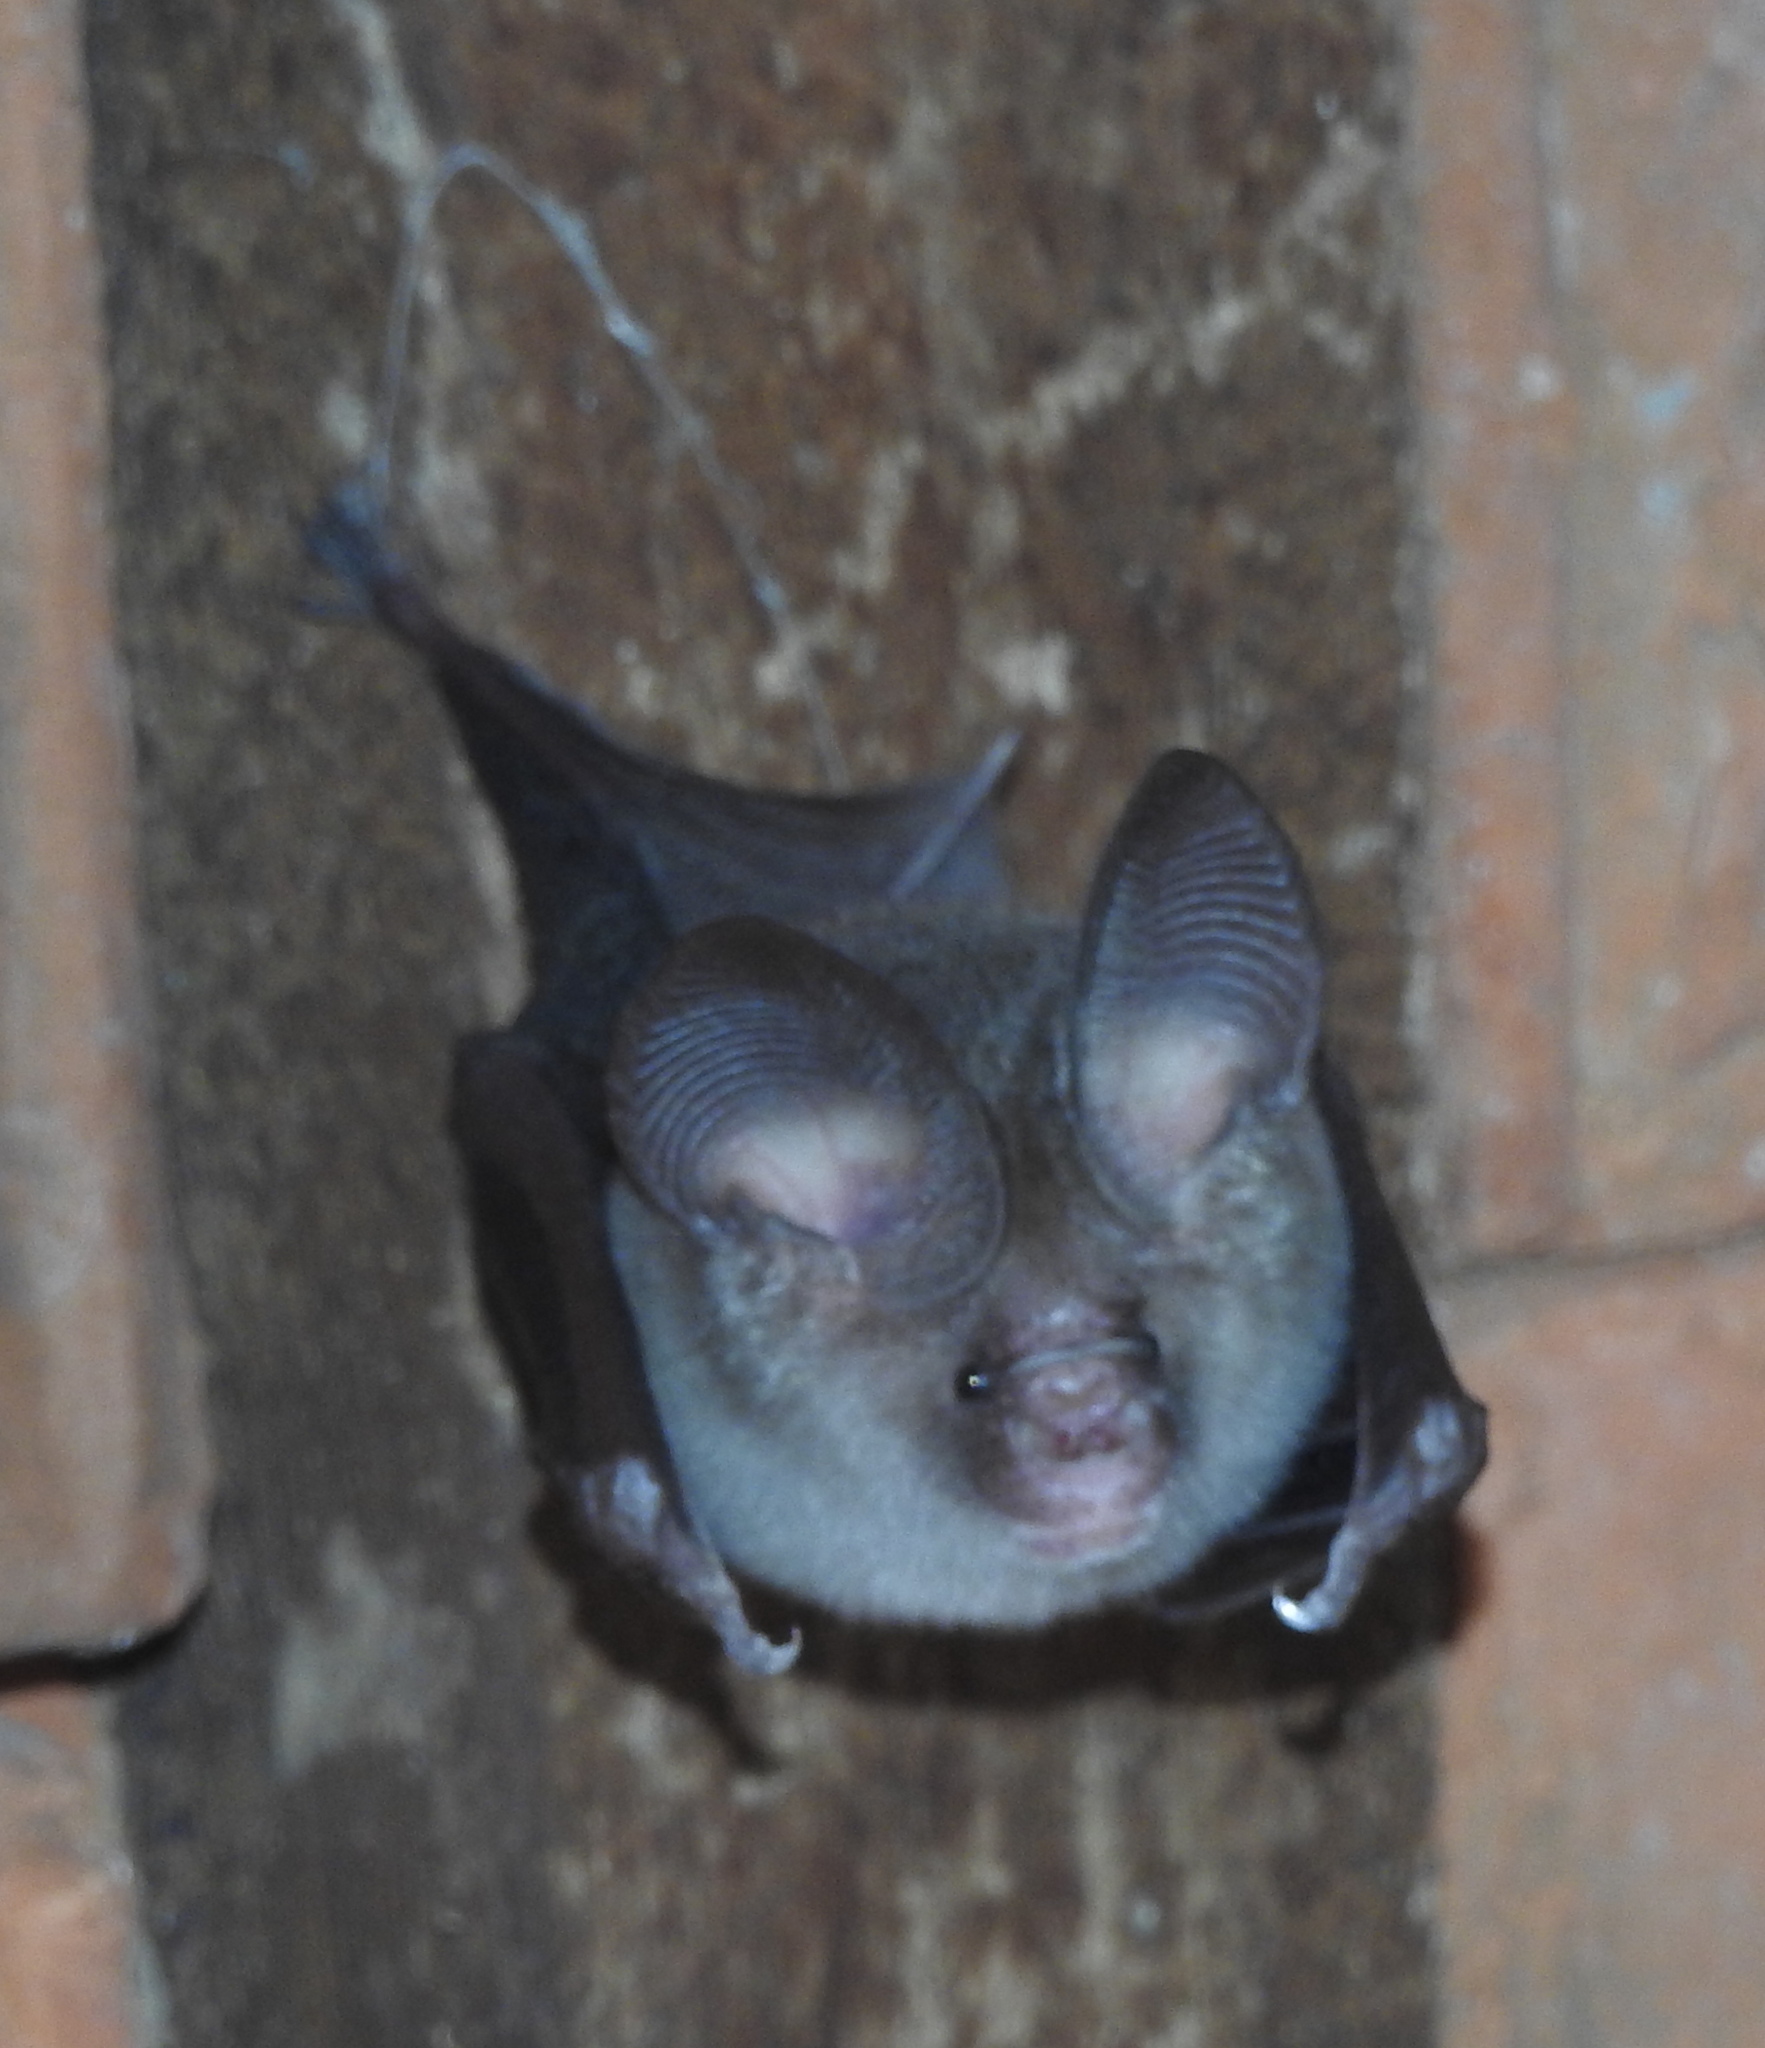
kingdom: Animalia
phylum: Chordata
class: Mammalia
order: Chiroptera
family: Hipposideridae
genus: Hipposideros
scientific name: Hipposideros fulvus
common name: Fulvus leaf-nosed bat
